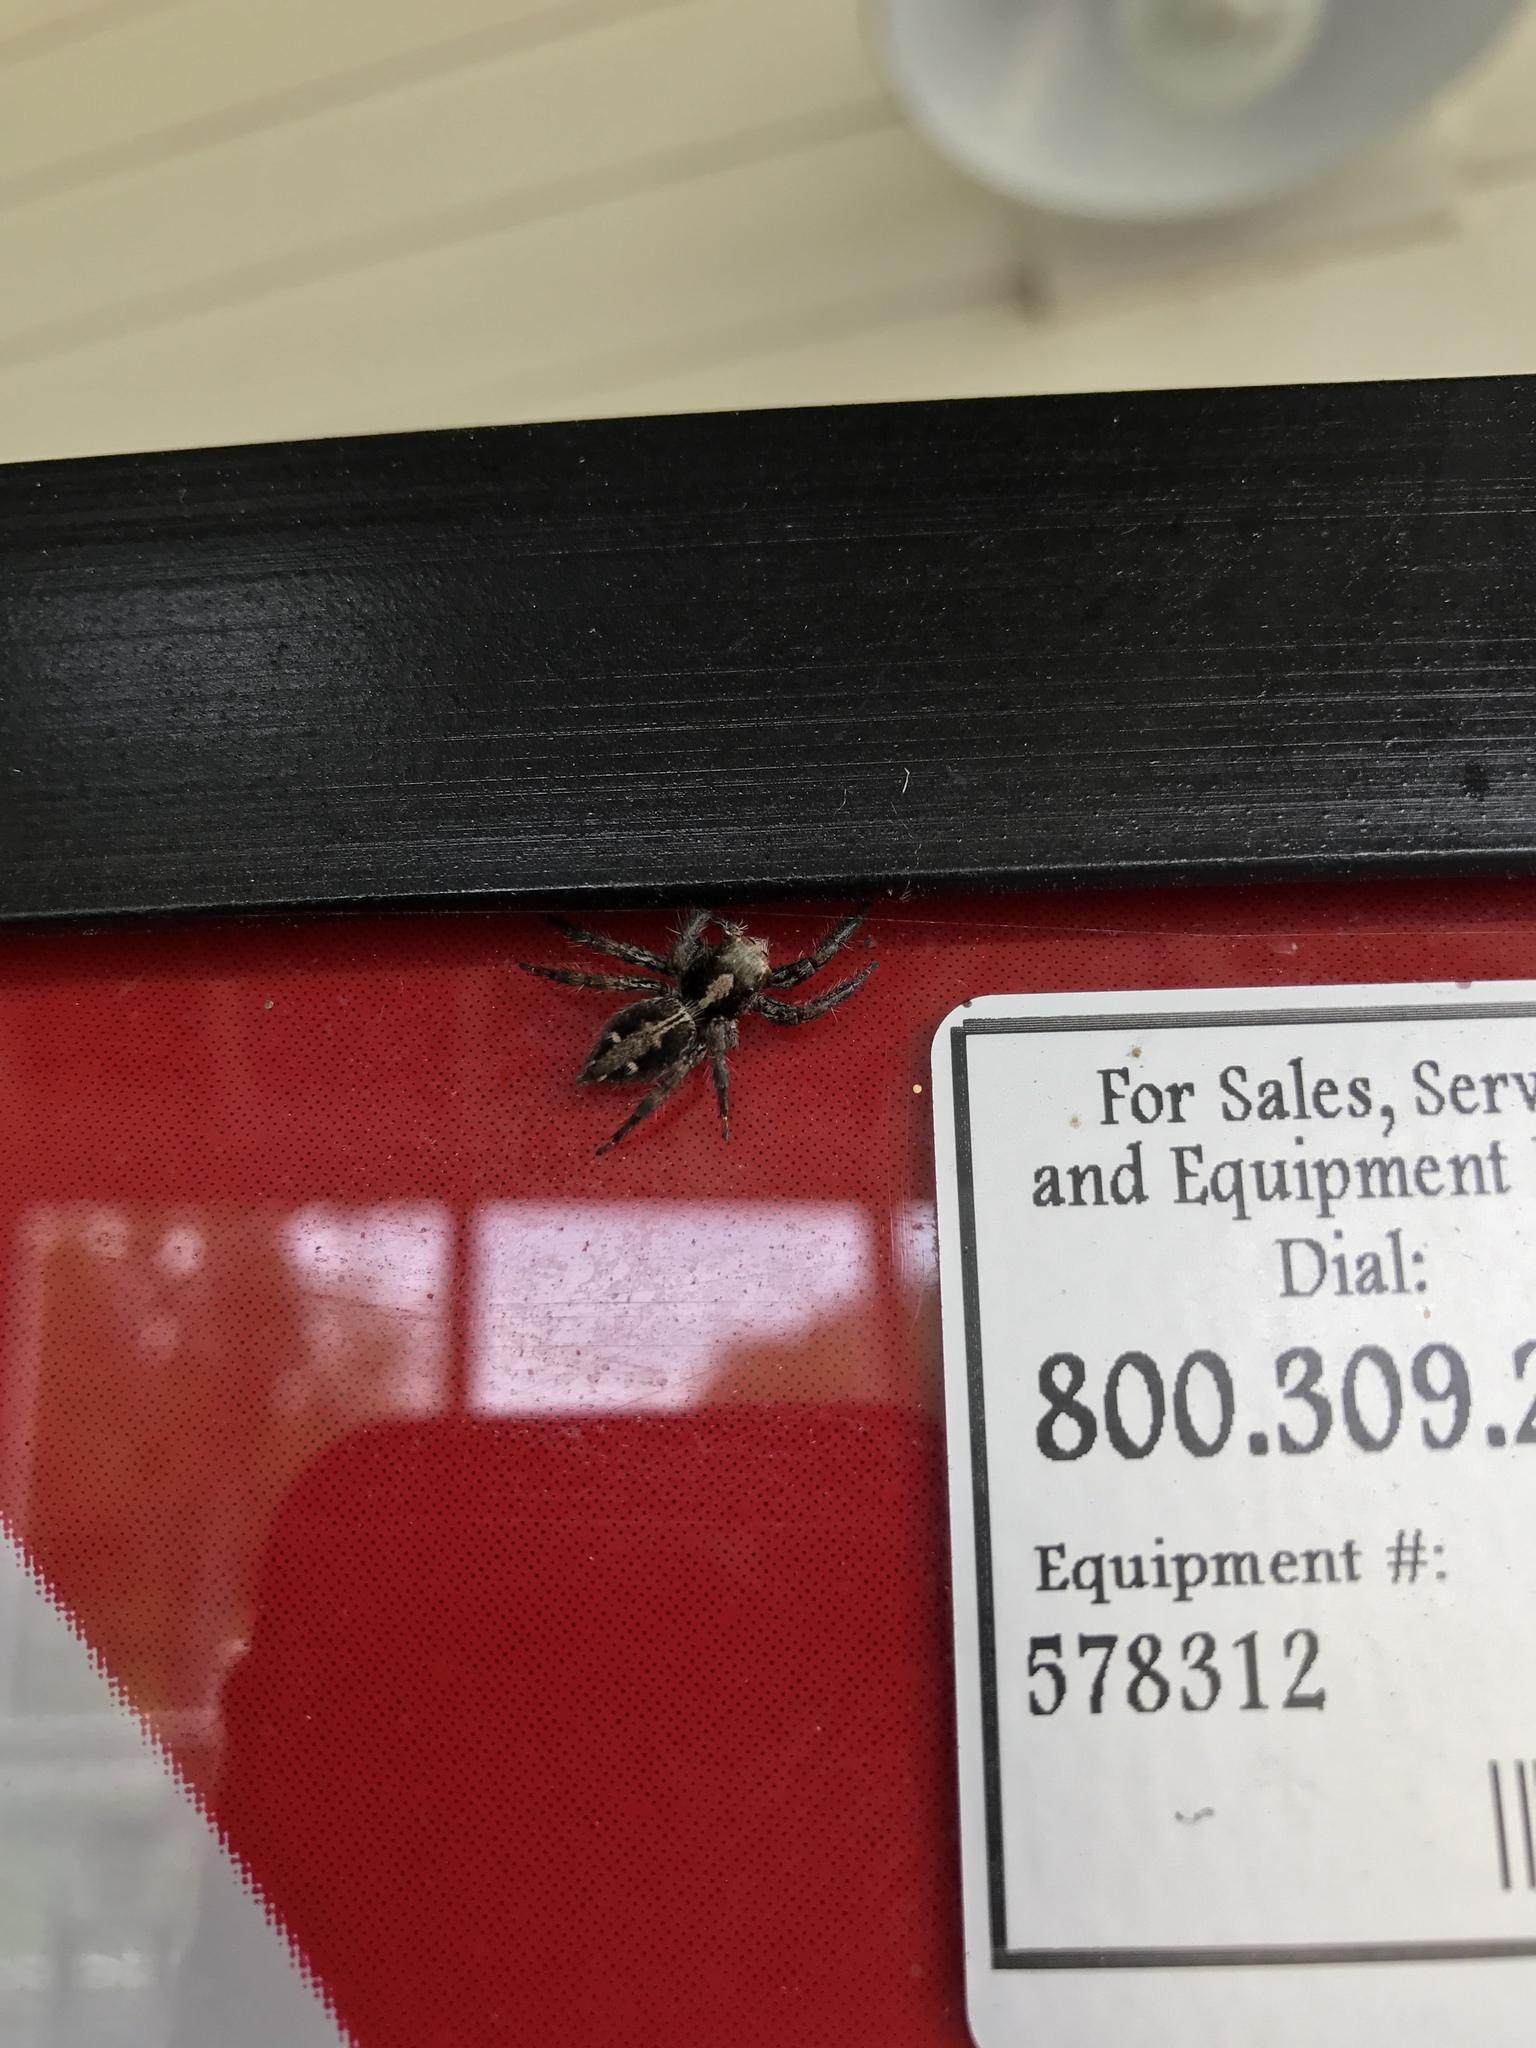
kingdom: Animalia
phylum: Arthropoda
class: Arachnida
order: Araneae
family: Salticidae
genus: Plexippus
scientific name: Plexippus paykulli
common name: Pantropical jumper
